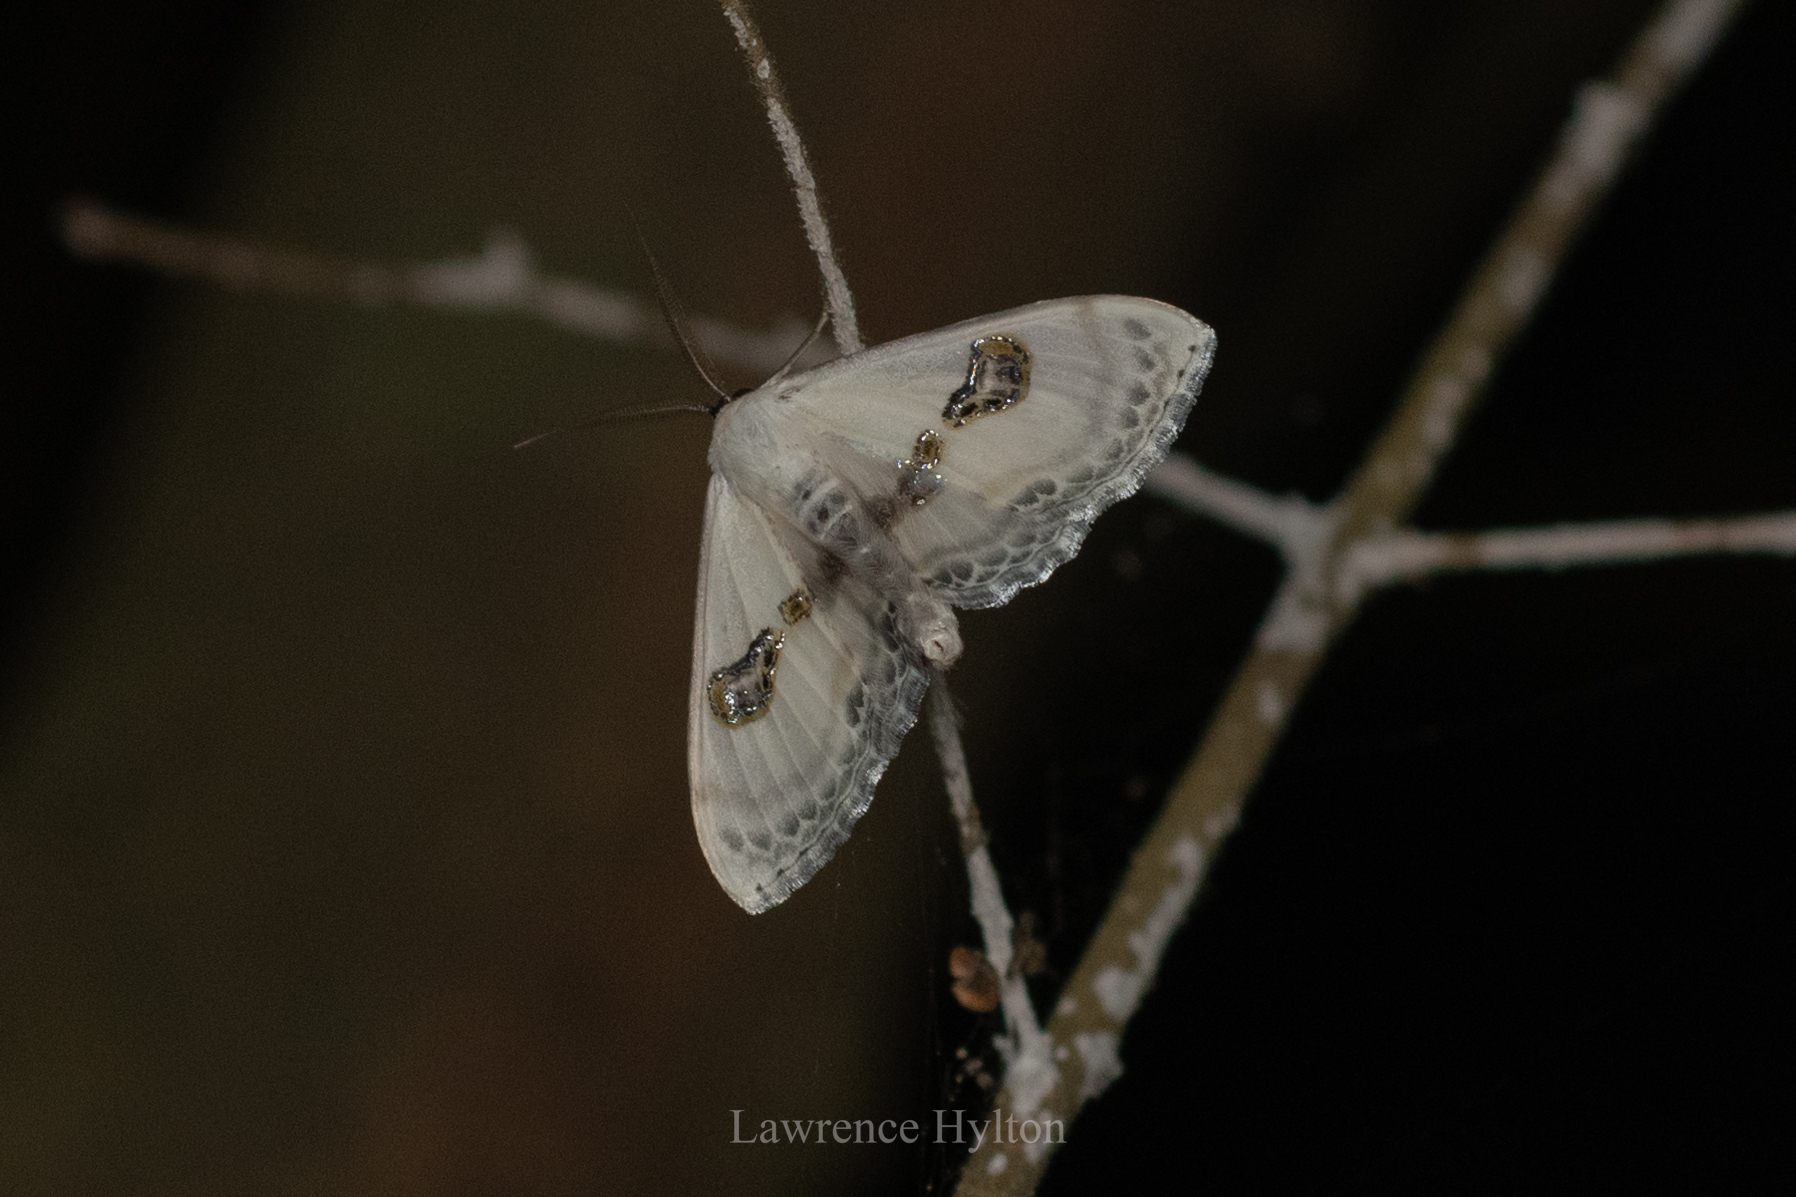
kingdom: Animalia
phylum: Arthropoda
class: Insecta
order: Lepidoptera
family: Geometridae
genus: Problepsis
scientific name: Problepsis vulgaris
